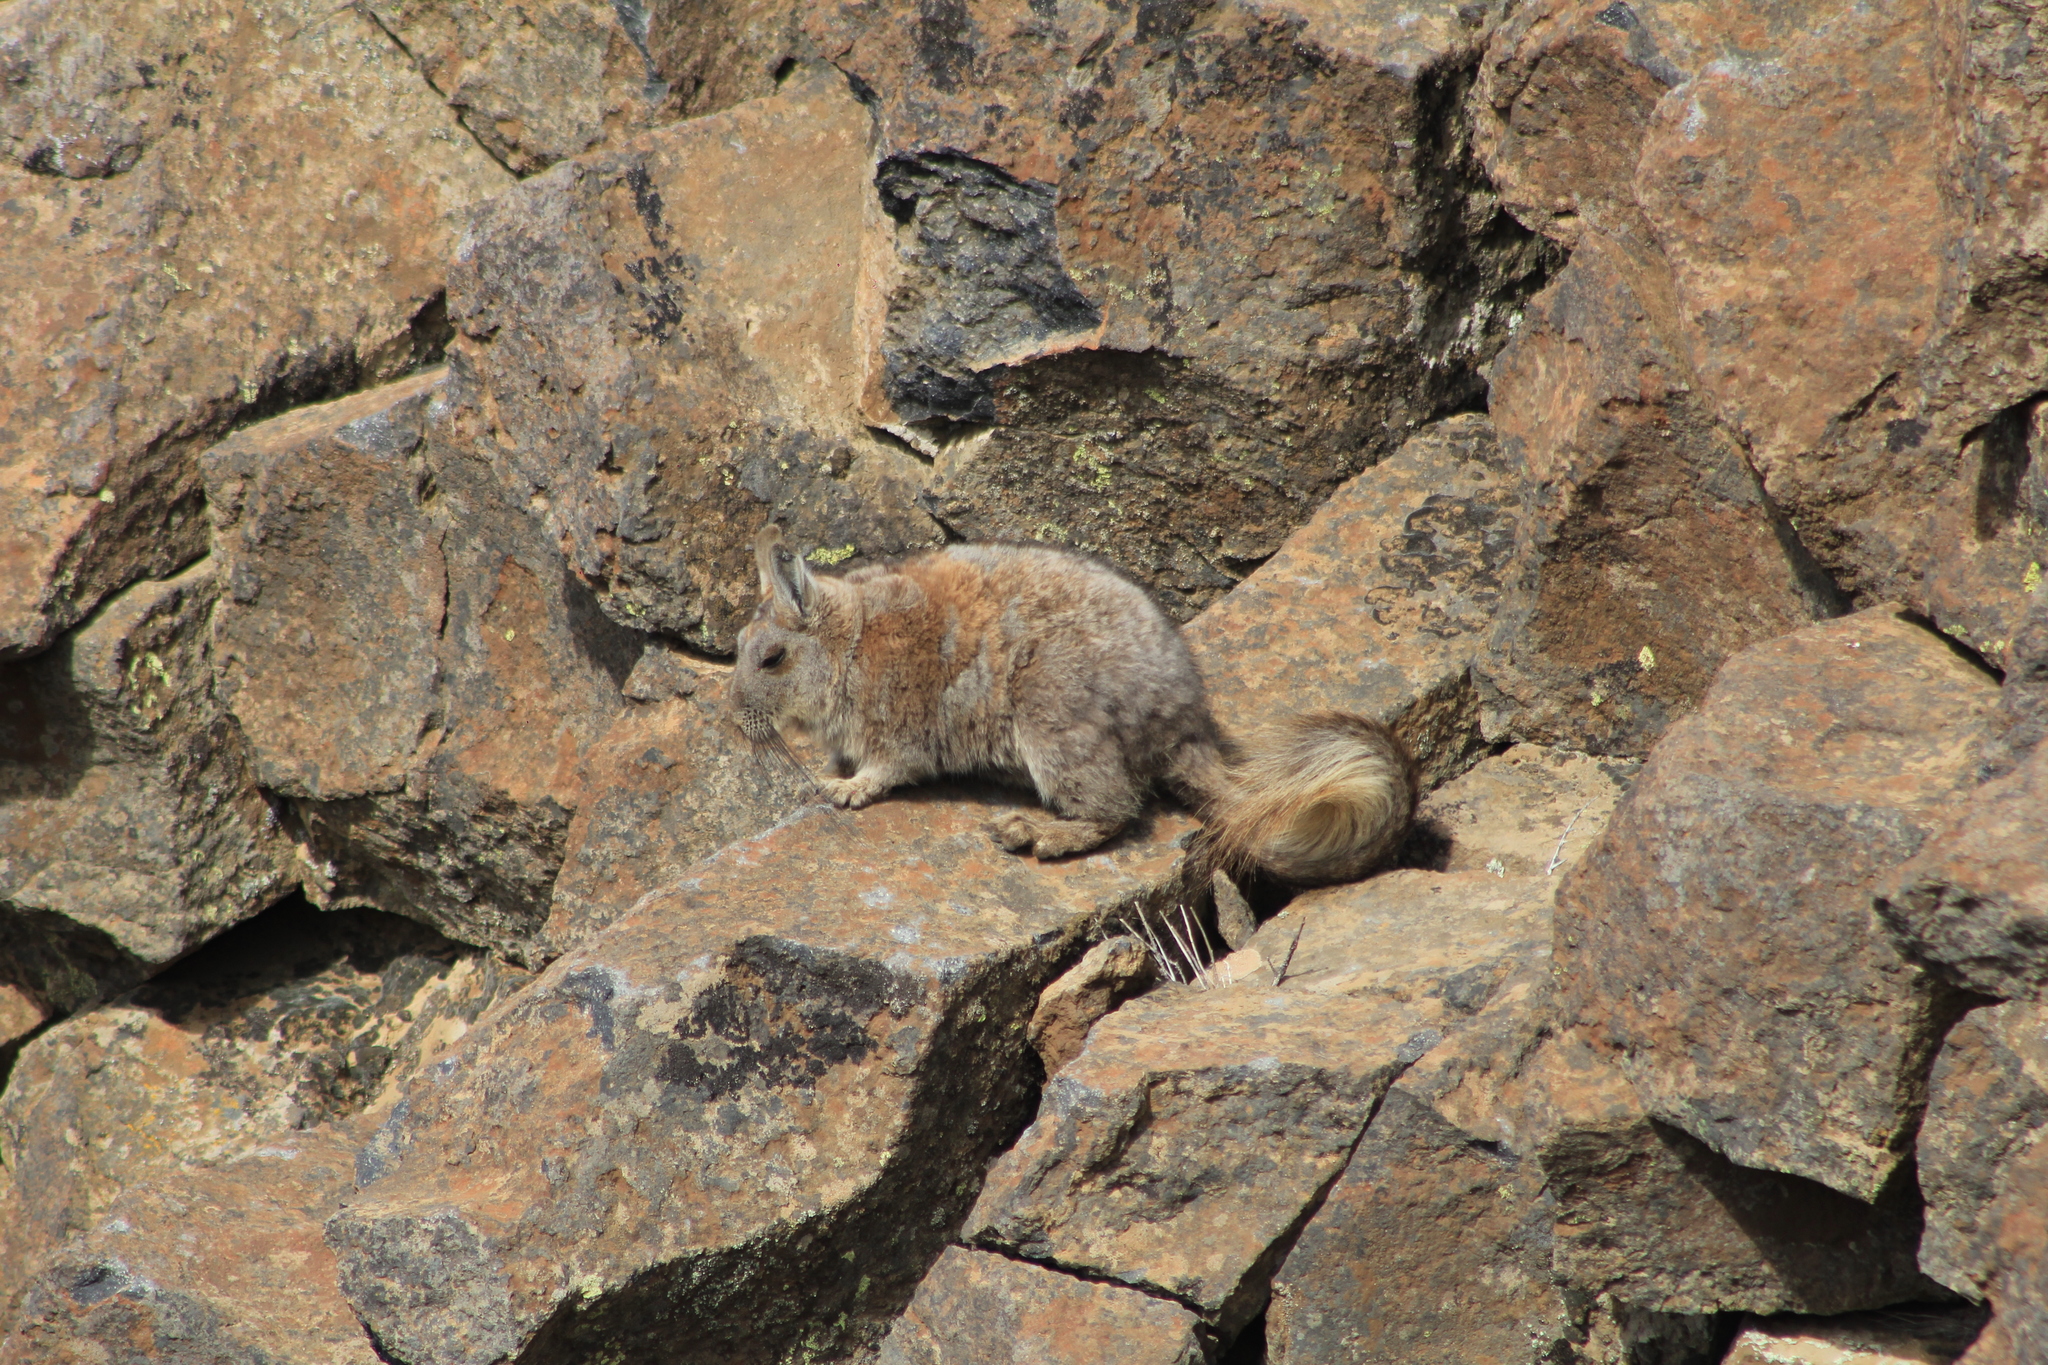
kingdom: Animalia
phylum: Chordata
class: Mammalia
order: Rodentia
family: Chinchillidae
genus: Lagidium
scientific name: Lagidium viscacia
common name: Southern viscacha
